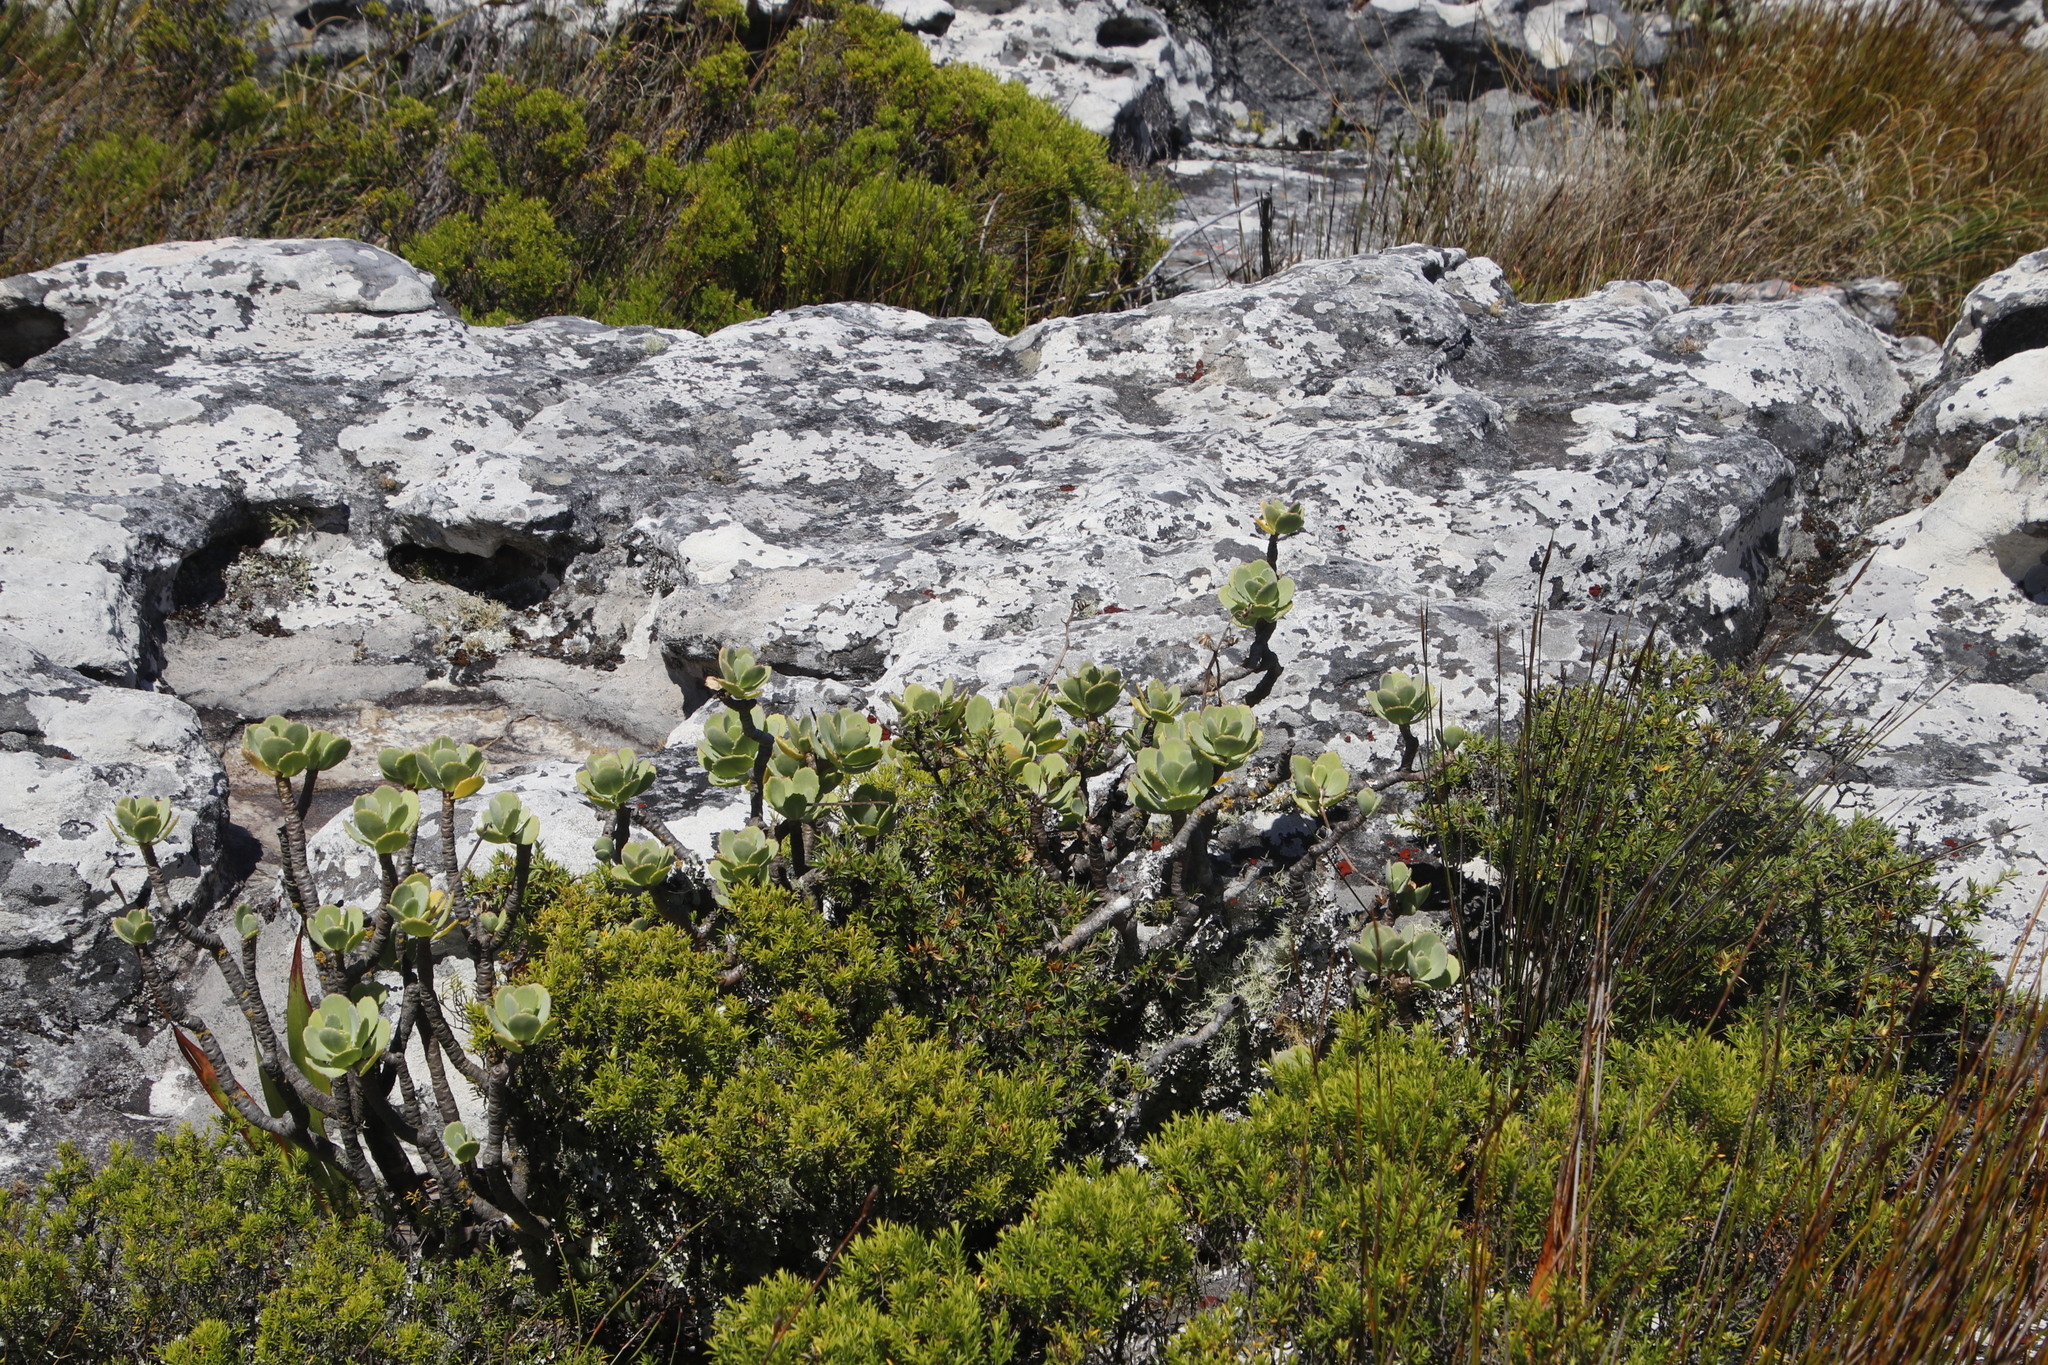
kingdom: Plantae
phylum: Tracheophyta
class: Magnoliopsida
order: Asterales
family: Asteraceae
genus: Othonna
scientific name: Othonna dentata
